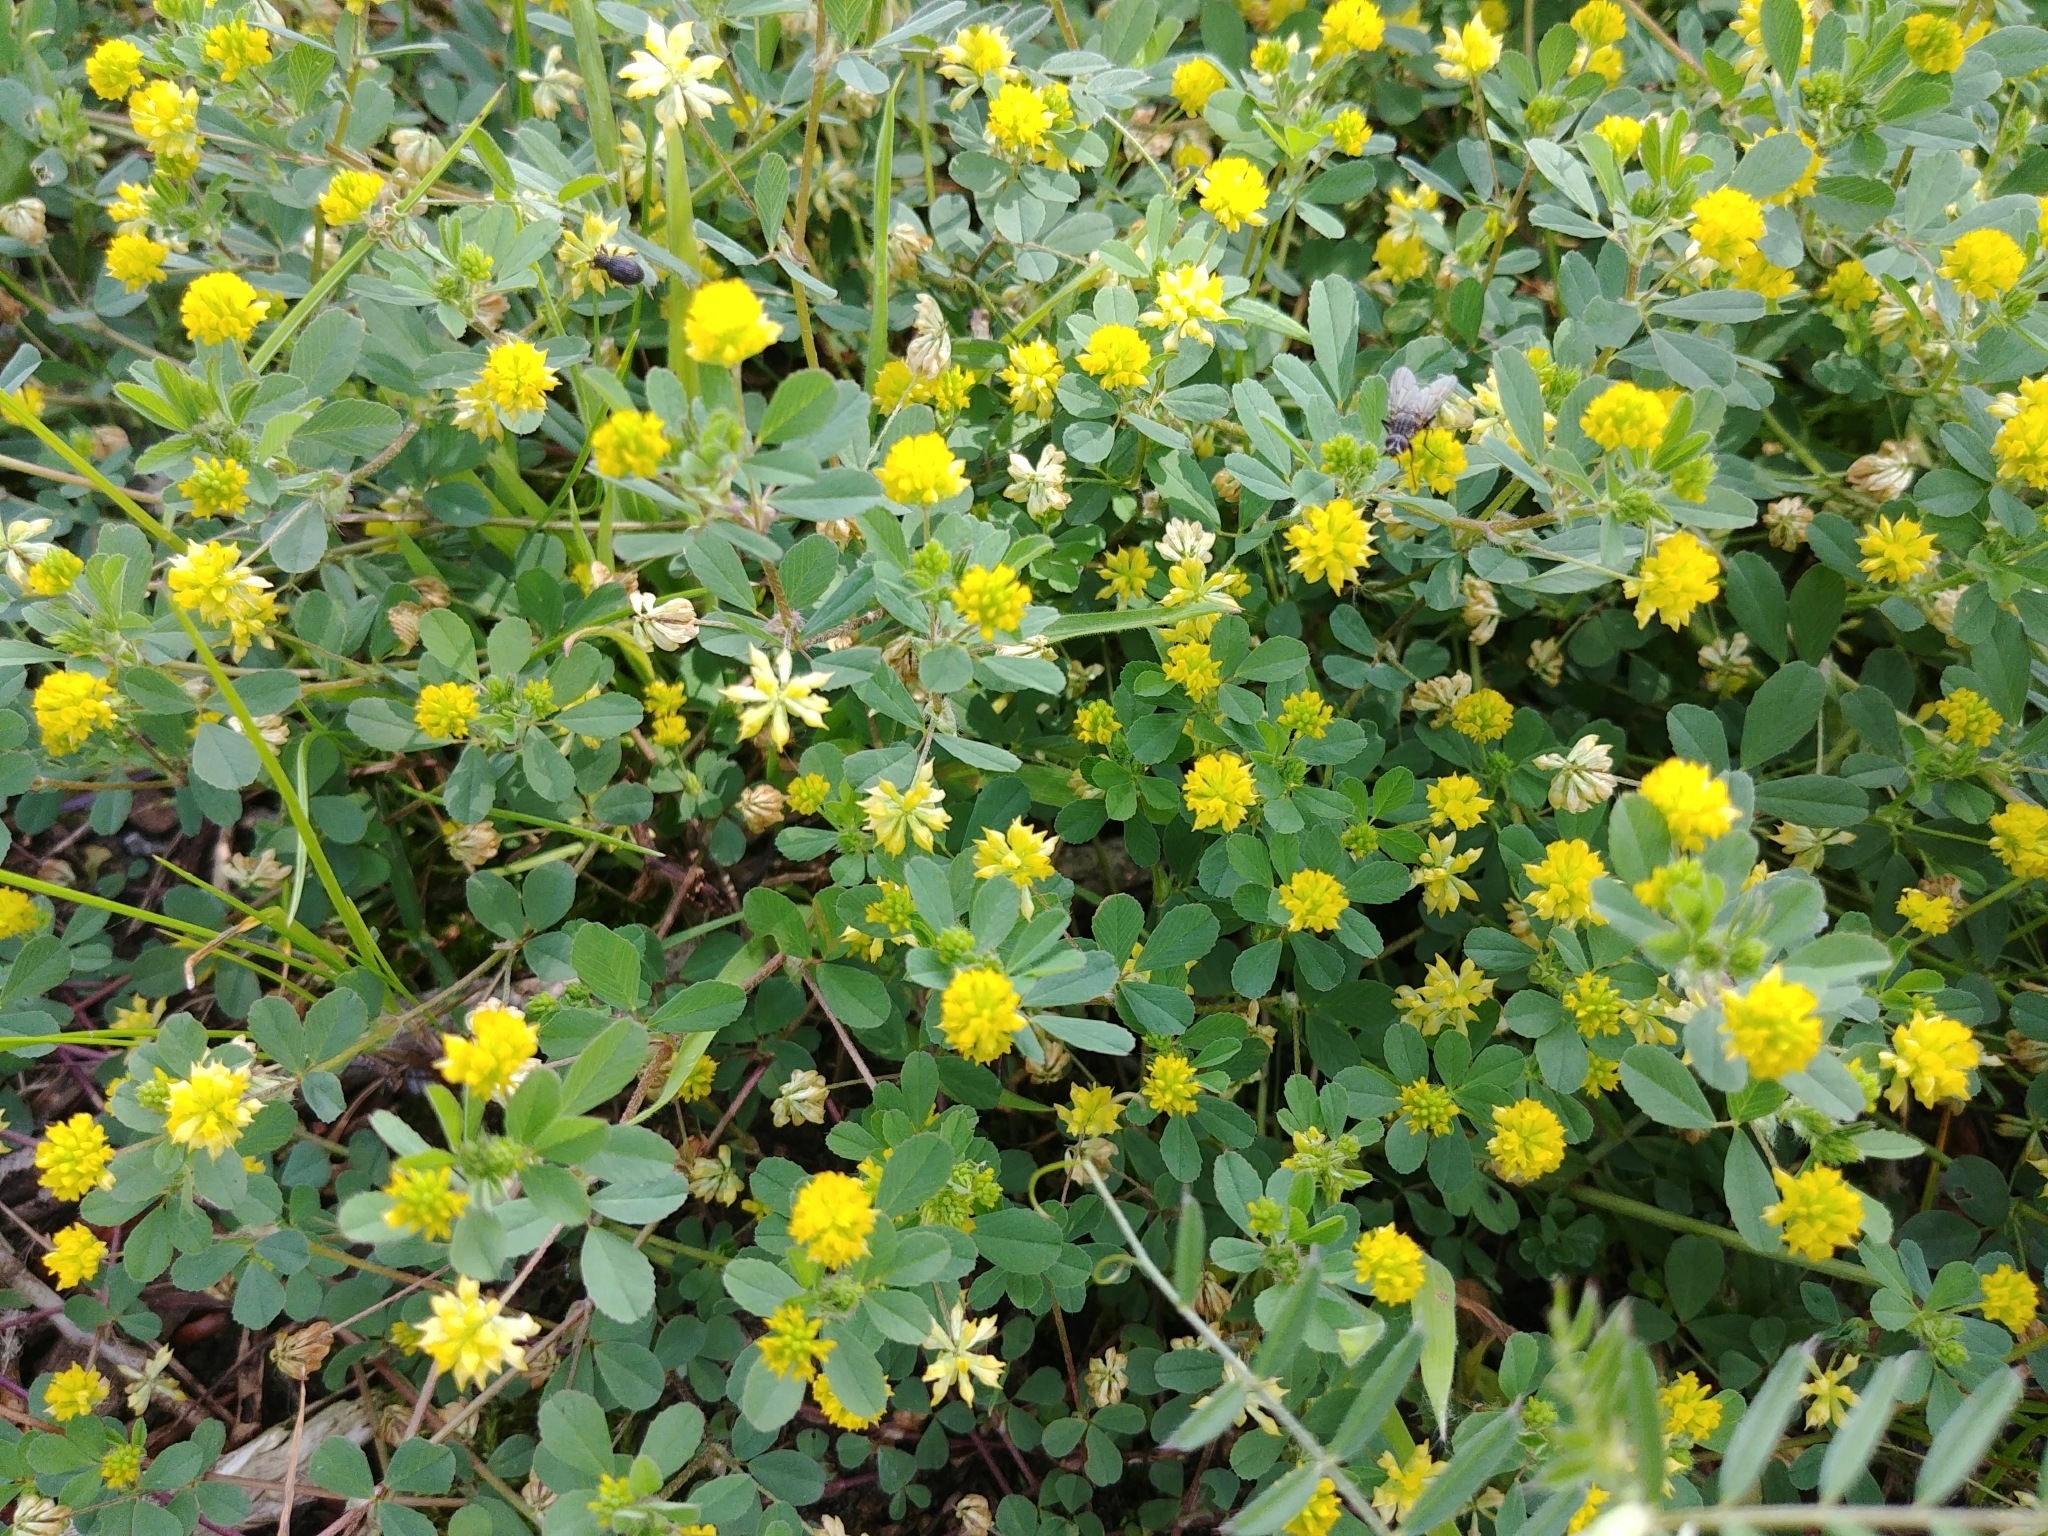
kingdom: Plantae
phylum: Tracheophyta
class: Magnoliopsida
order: Fabales
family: Fabaceae
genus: Trifolium
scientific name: Trifolium dubium
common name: Suckling clover
